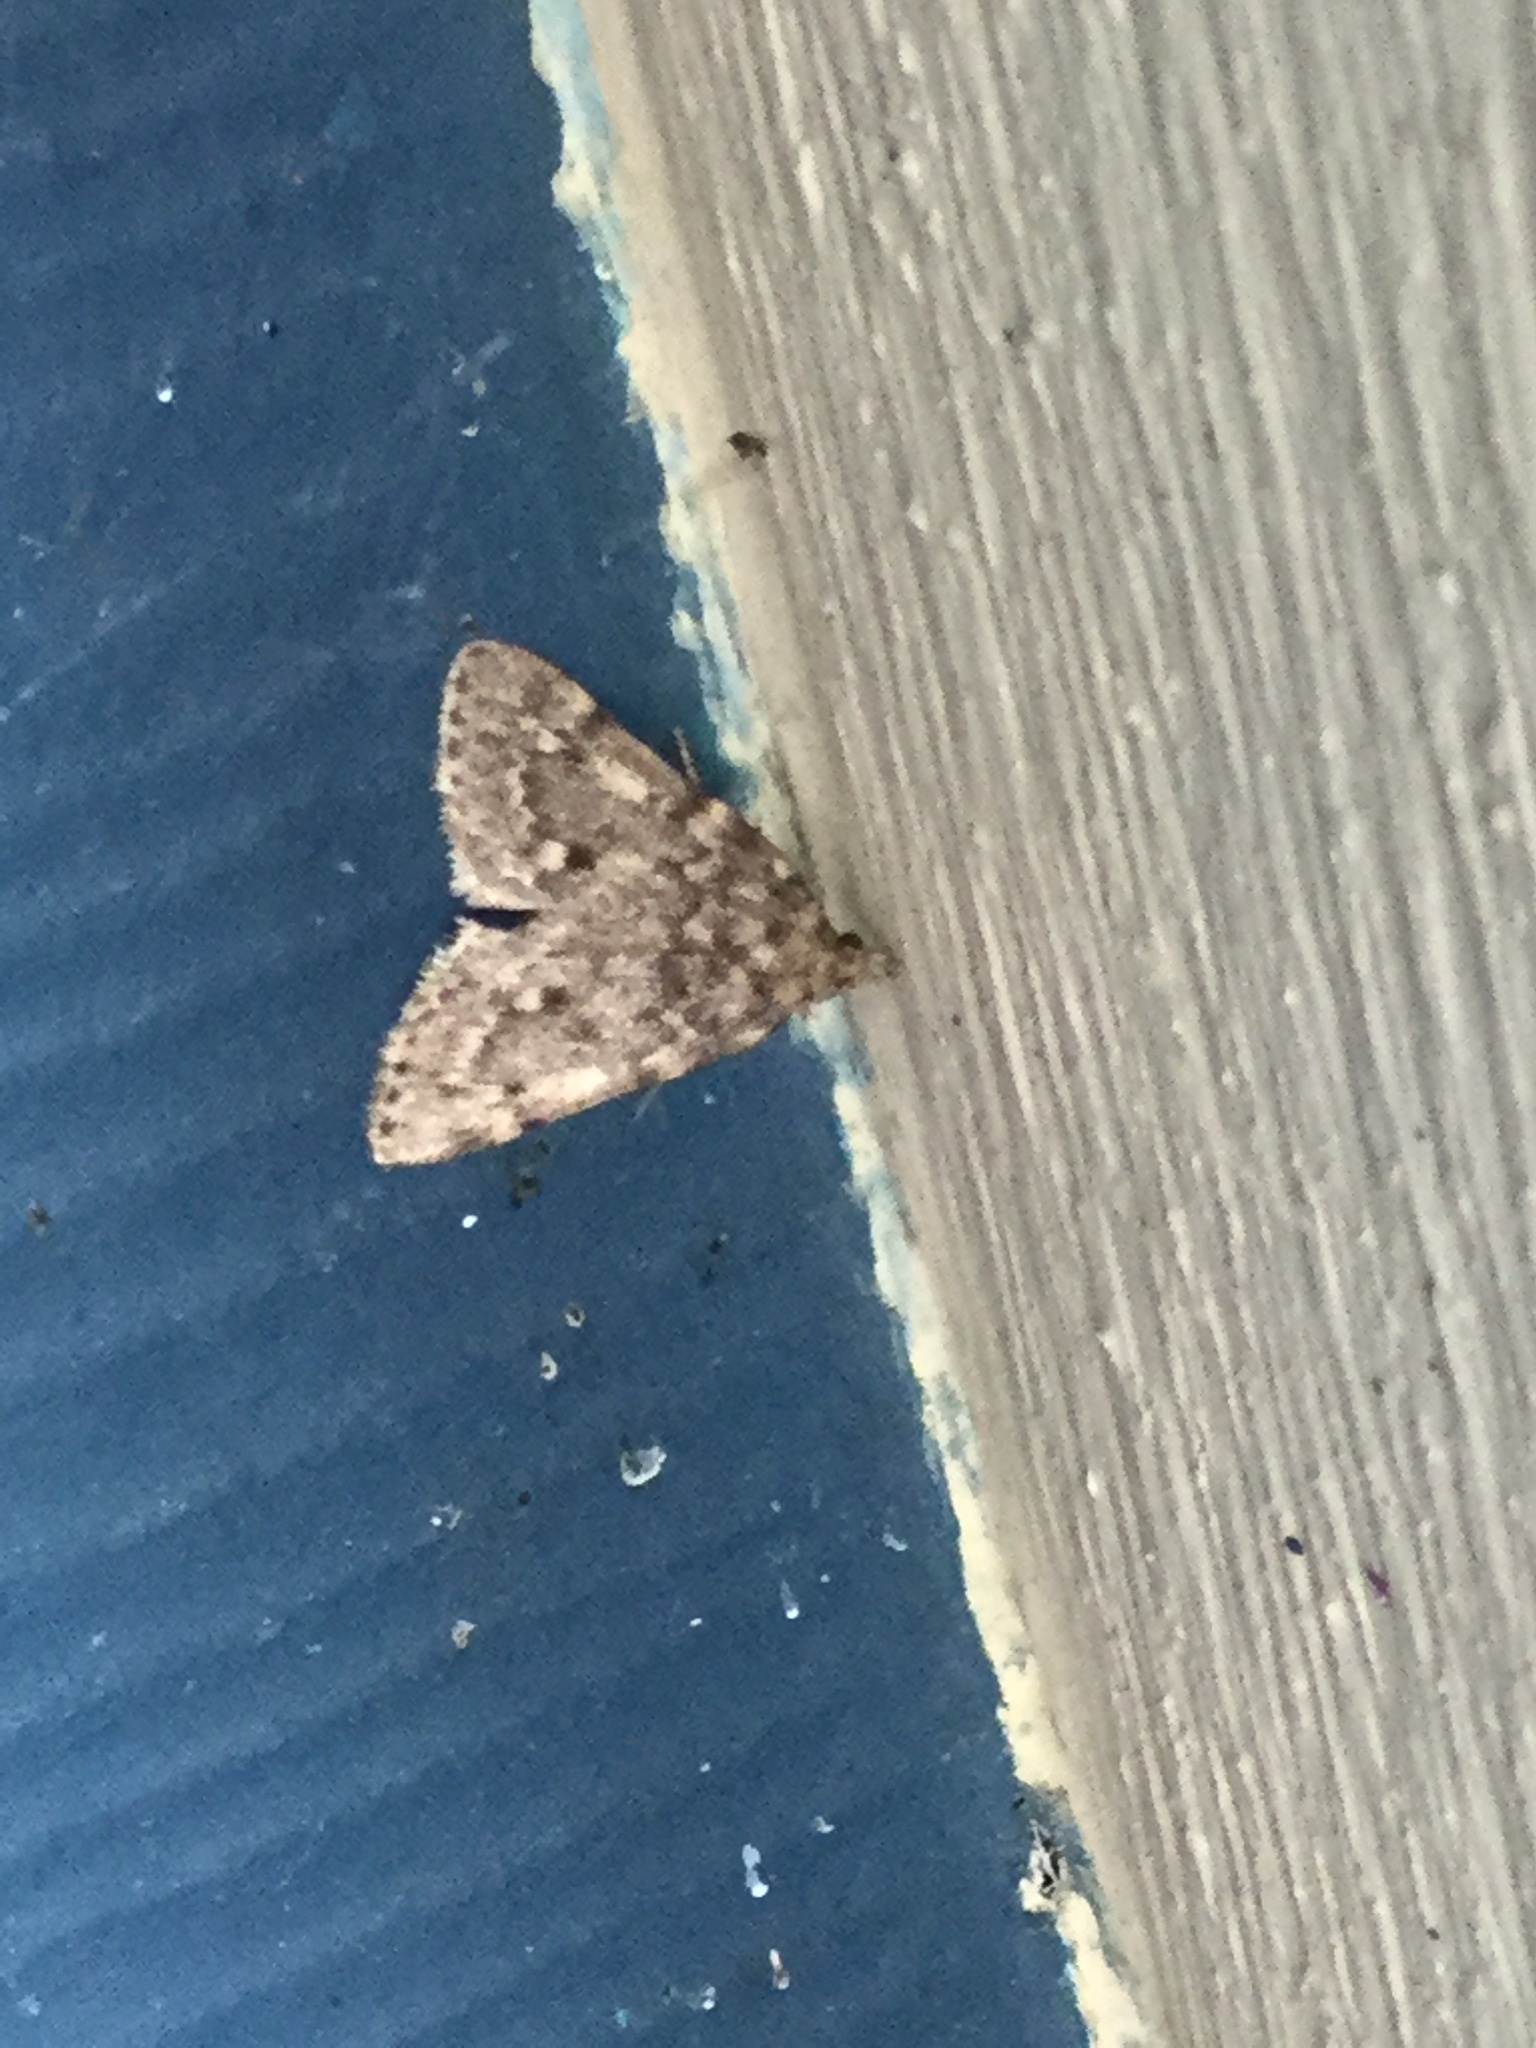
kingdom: Animalia
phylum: Arthropoda
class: Insecta
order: Lepidoptera
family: Pyralidae
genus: Aglossa
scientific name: Aglossa pinguinalis
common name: Large tabby
